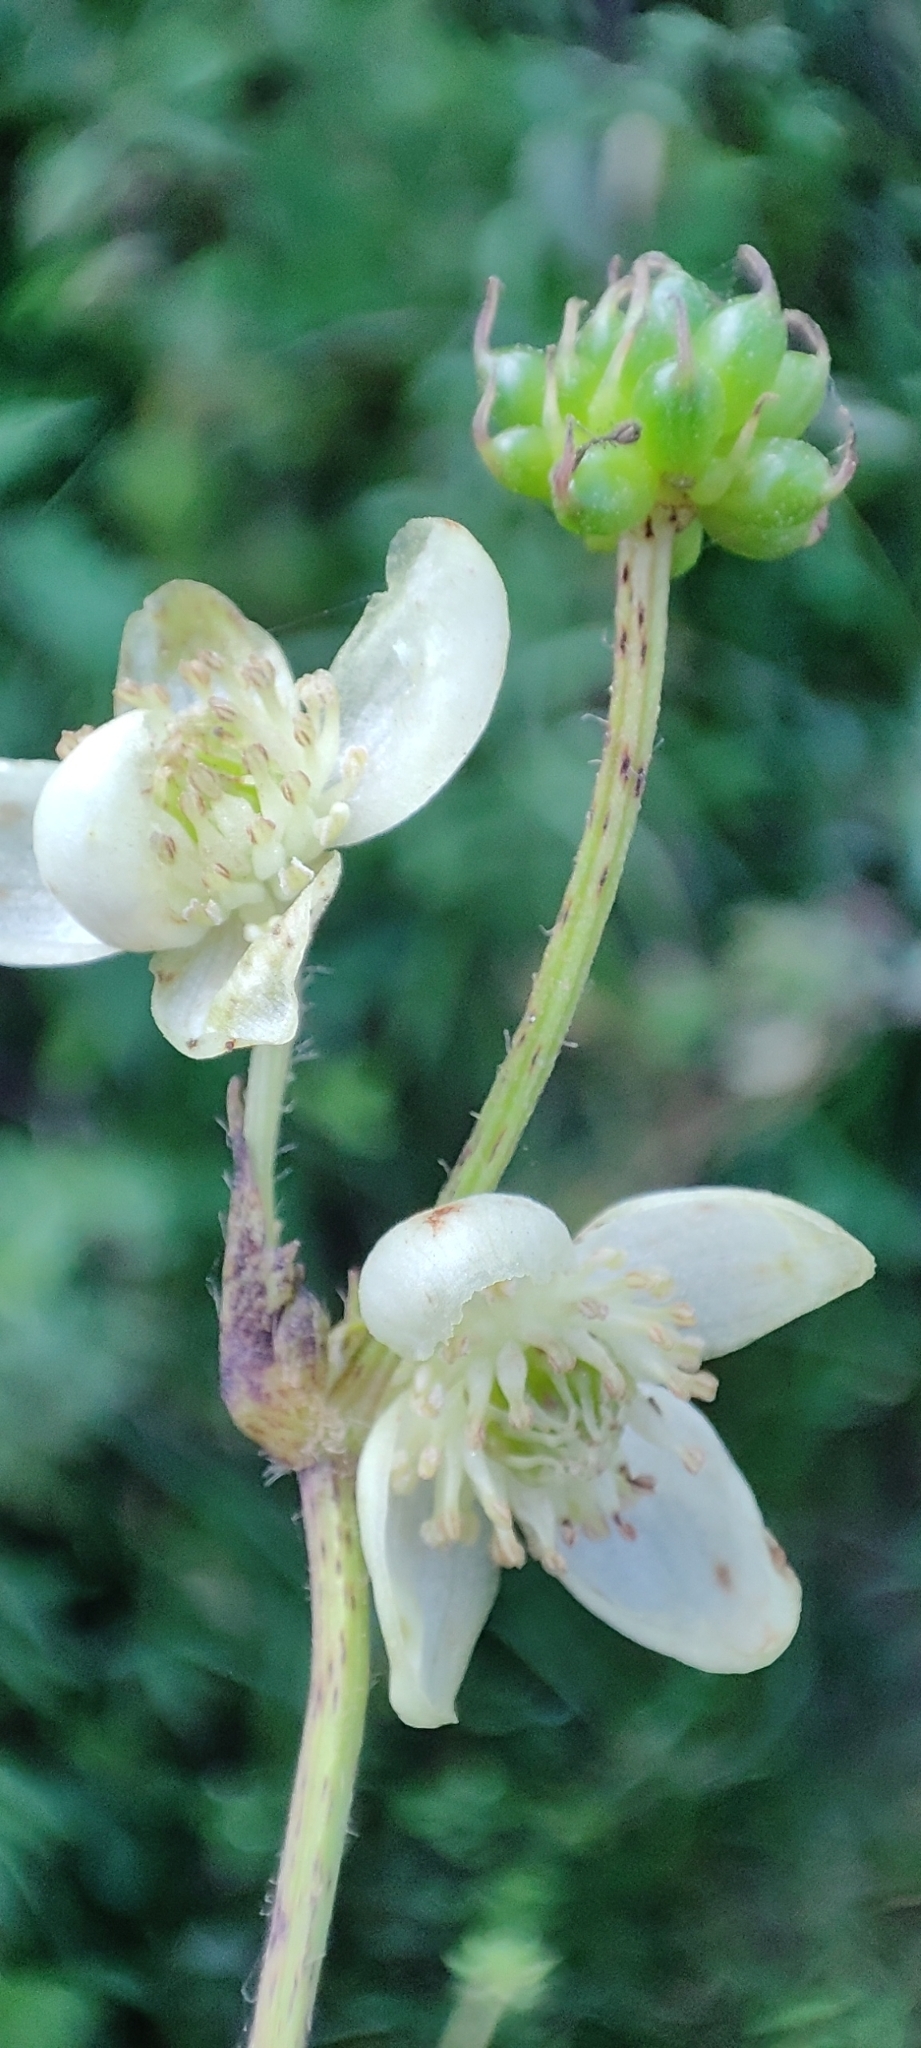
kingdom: Plantae
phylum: Tracheophyta
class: Magnoliopsida
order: Ranunculales
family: Ranunculaceae
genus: Knowltonia
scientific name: Knowltonia helleborifolia
